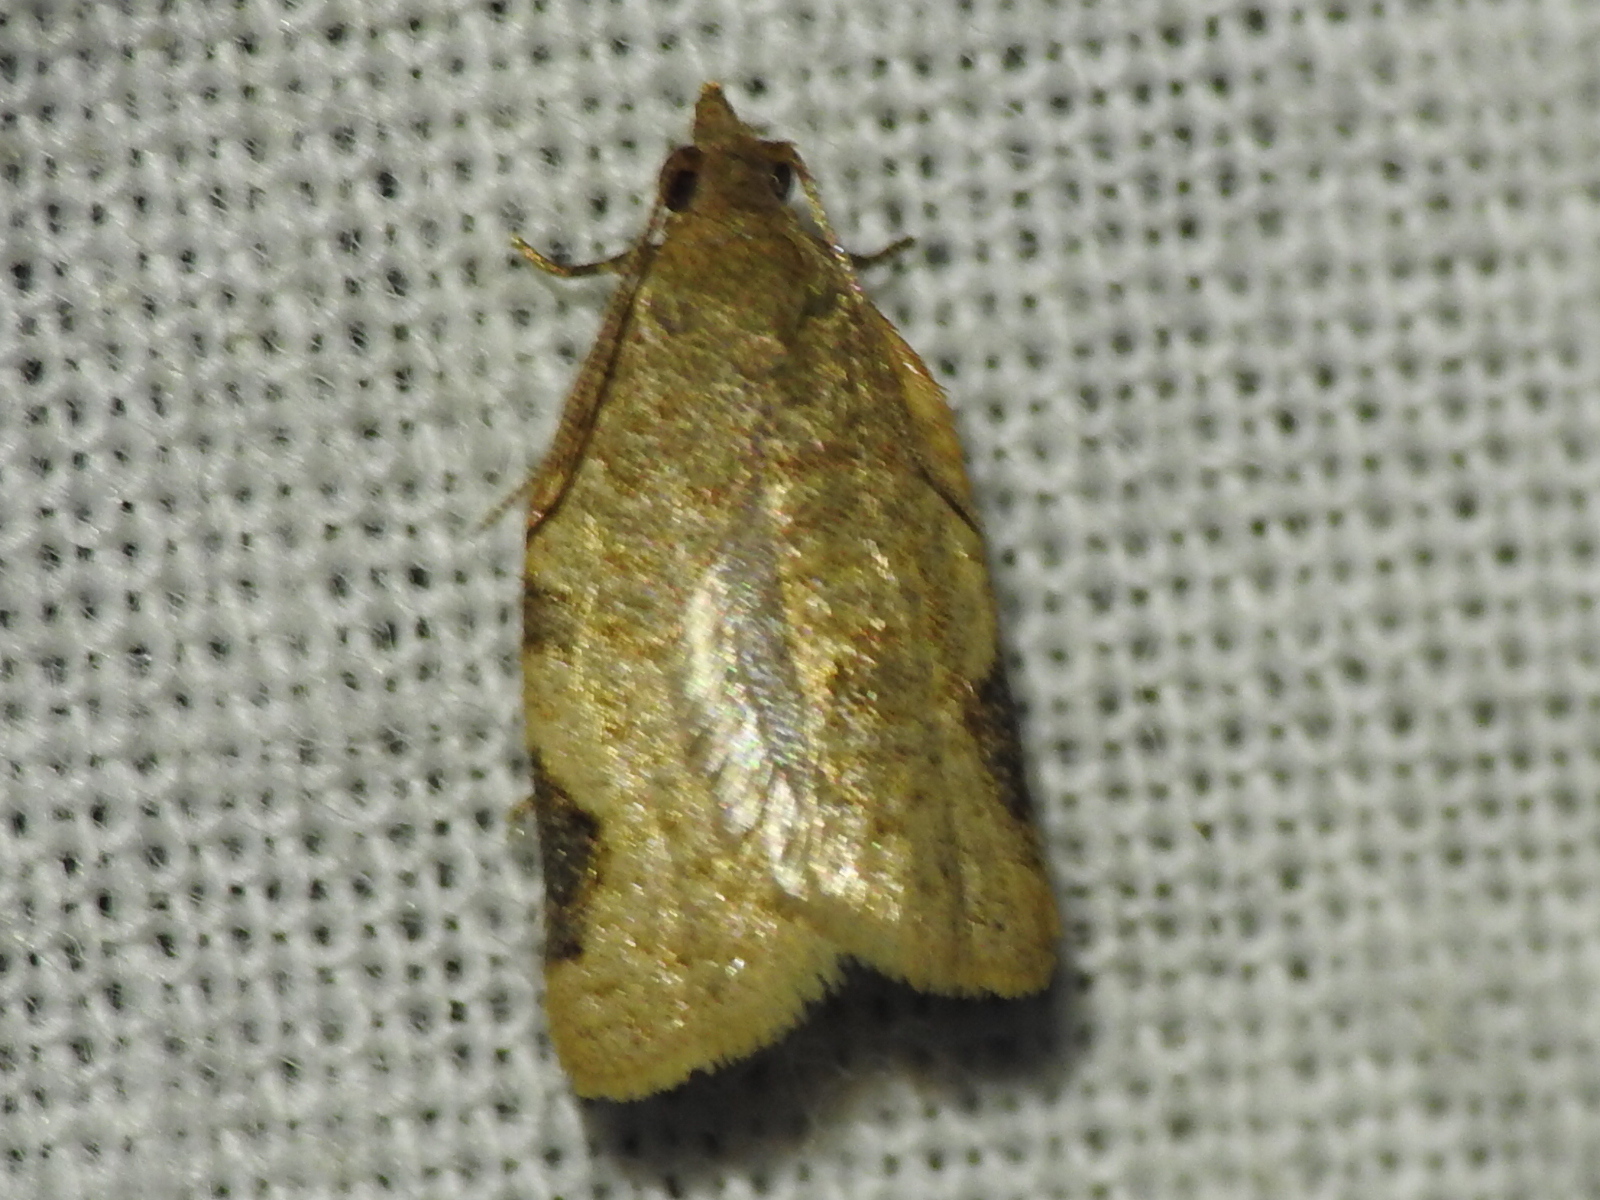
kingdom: Animalia
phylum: Arthropoda
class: Insecta
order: Lepidoptera
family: Tortricidae
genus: Clepsis
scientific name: Clepsis virescana
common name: Greenish apple moth
